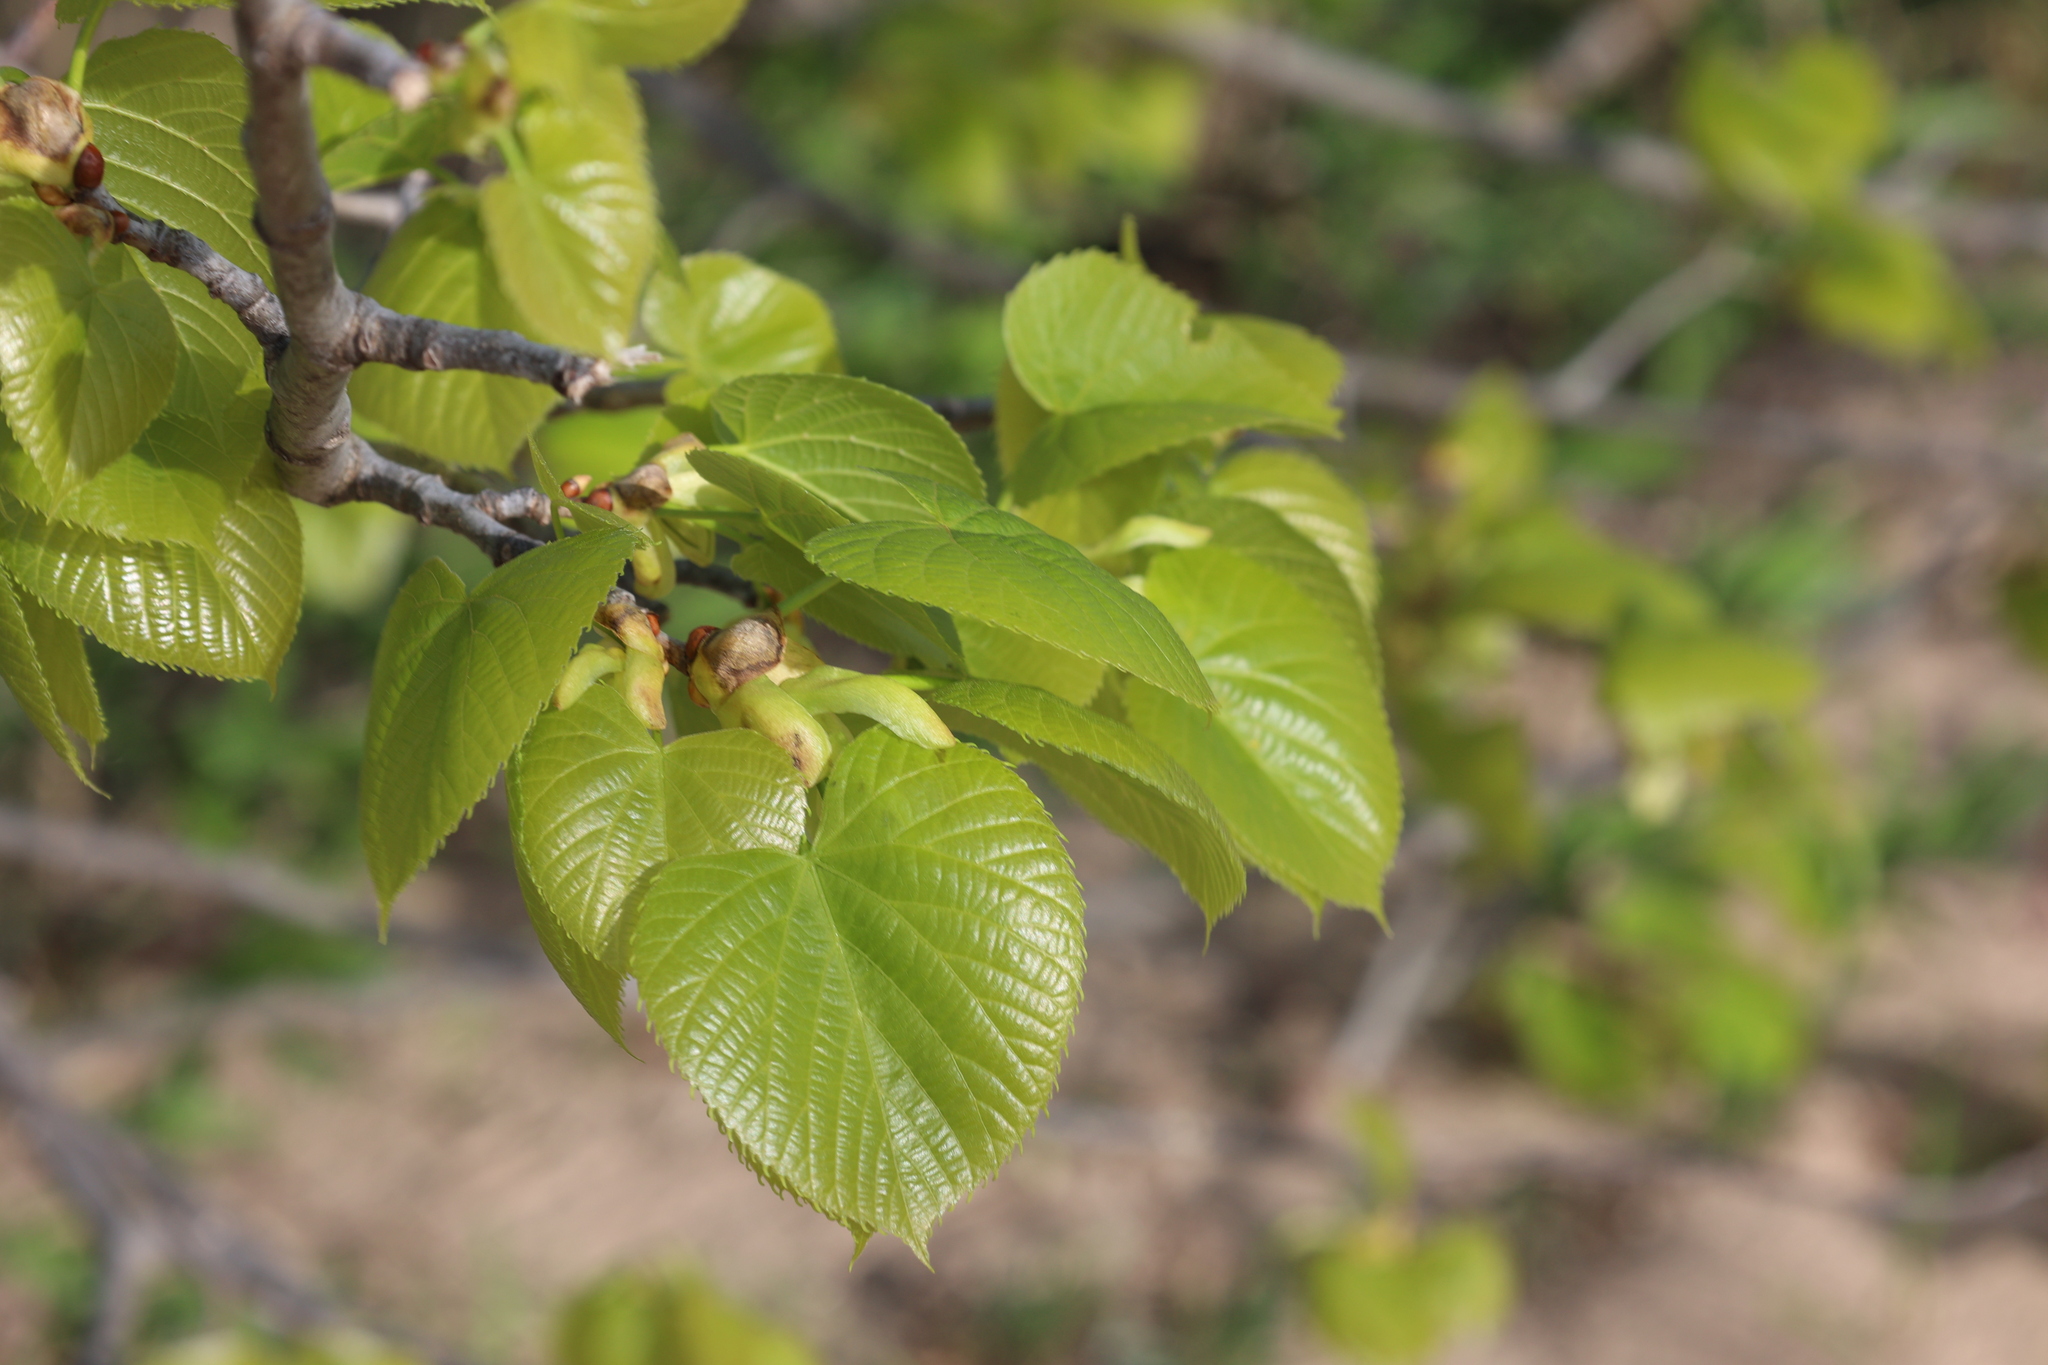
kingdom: Plantae
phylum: Tracheophyta
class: Magnoliopsida
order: Malvales
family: Malvaceae
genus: Tilia
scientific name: Tilia americana
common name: Basswood
